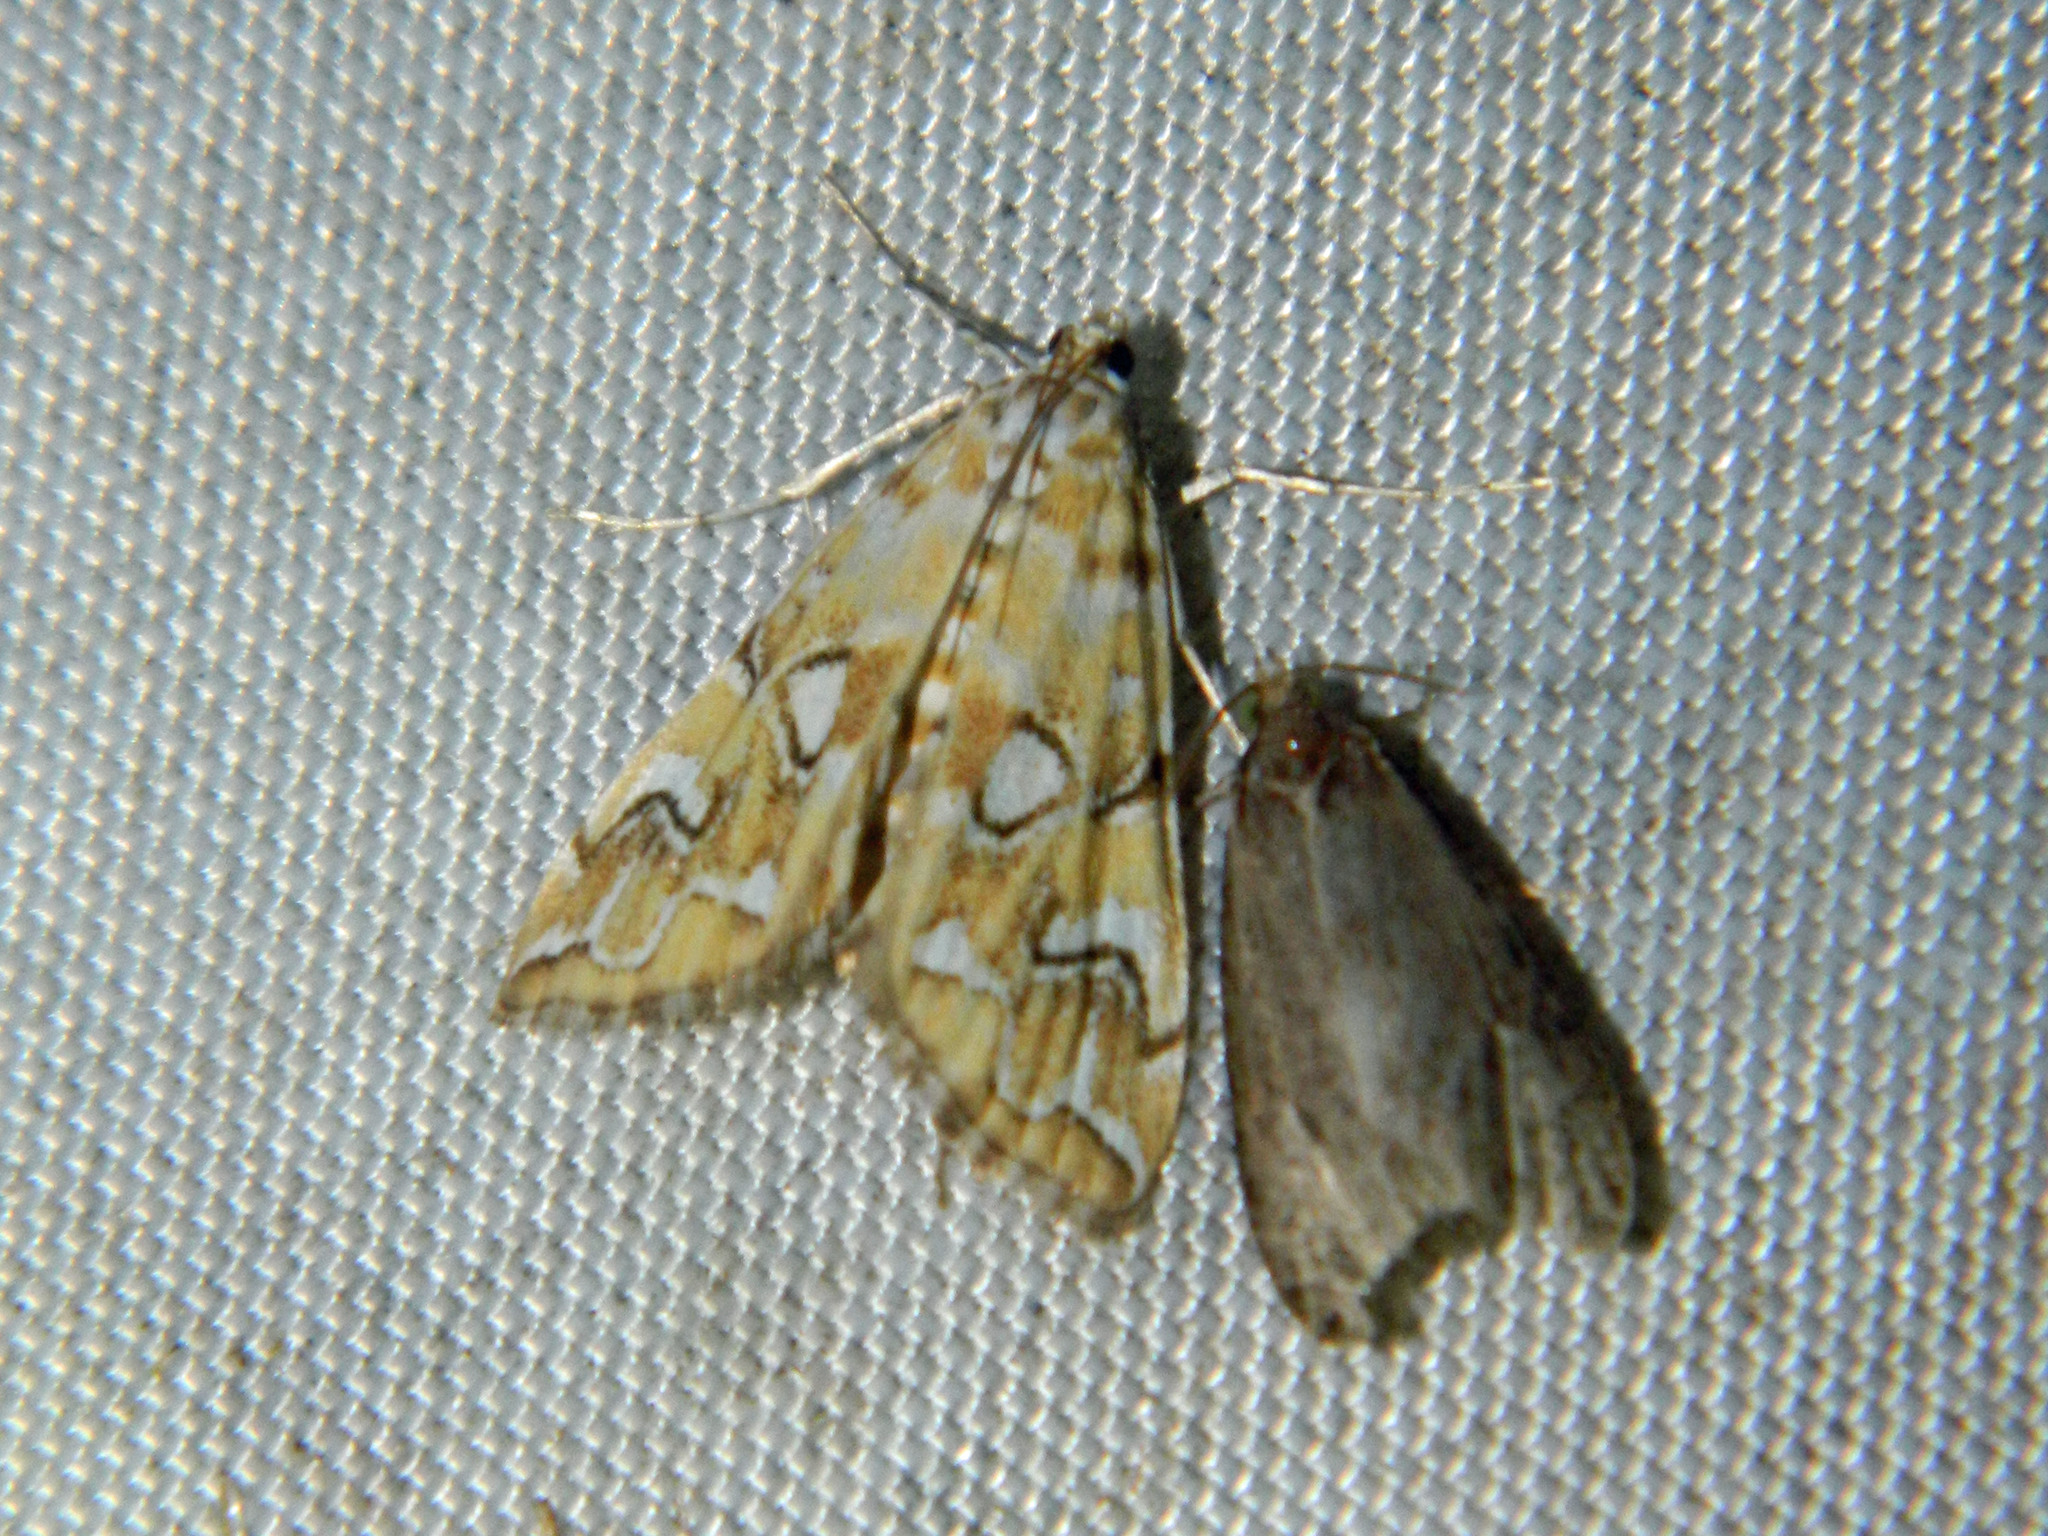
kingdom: Animalia
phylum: Arthropoda
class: Insecta
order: Lepidoptera
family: Crambidae
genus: Elophila
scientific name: Elophila icciusalis
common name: Pondside pyralid moth
